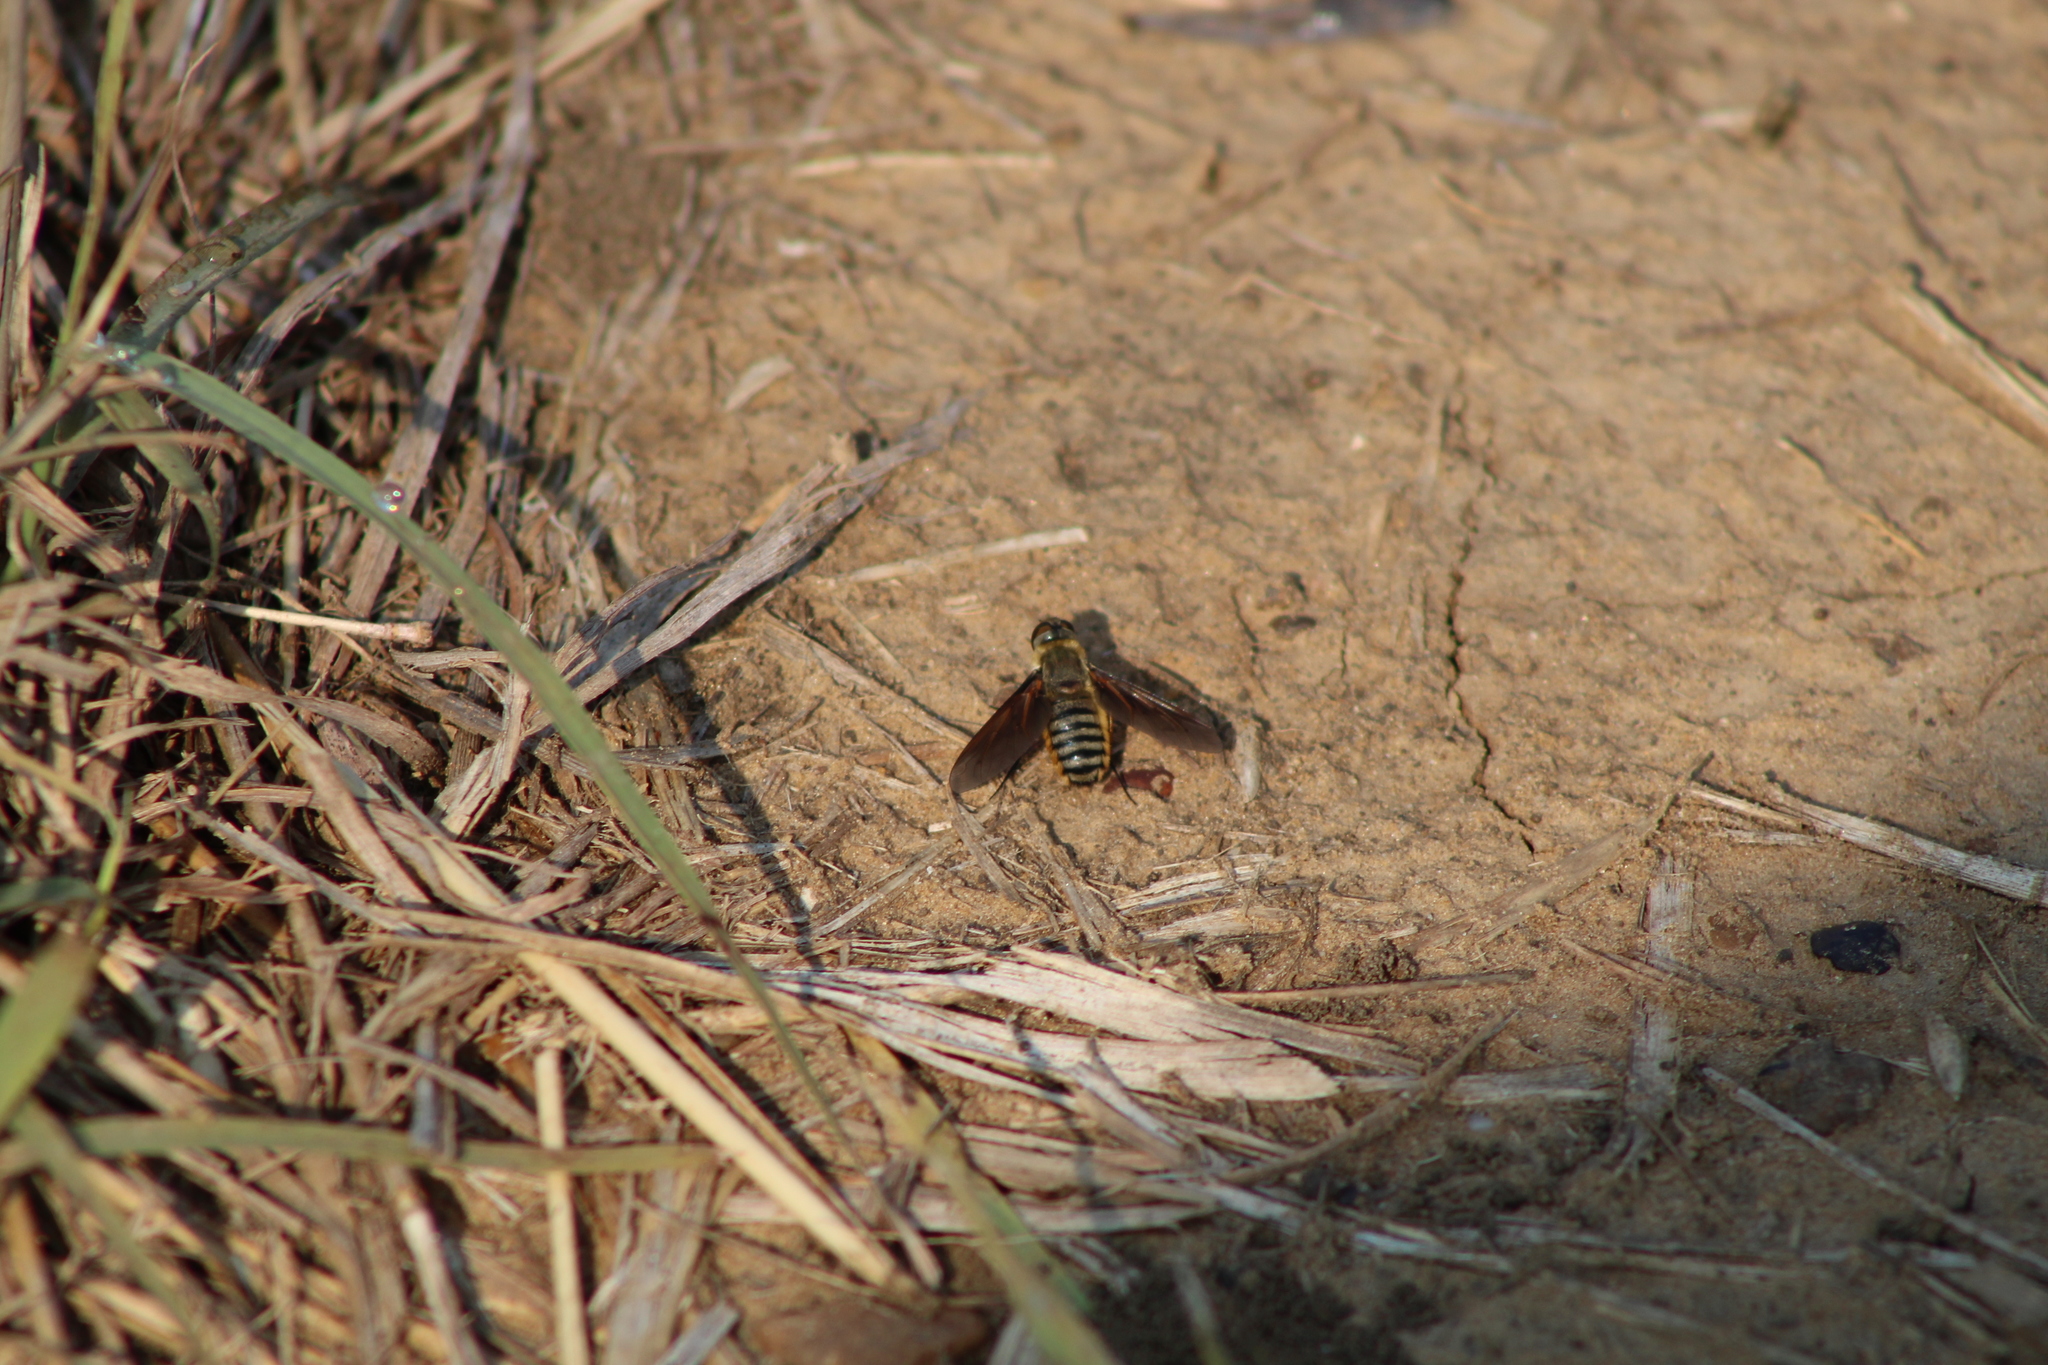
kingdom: Animalia
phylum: Arthropoda
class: Insecta
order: Diptera
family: Bombyliidae
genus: Poecilanthrax
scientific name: Poecilanthrax lucifer
